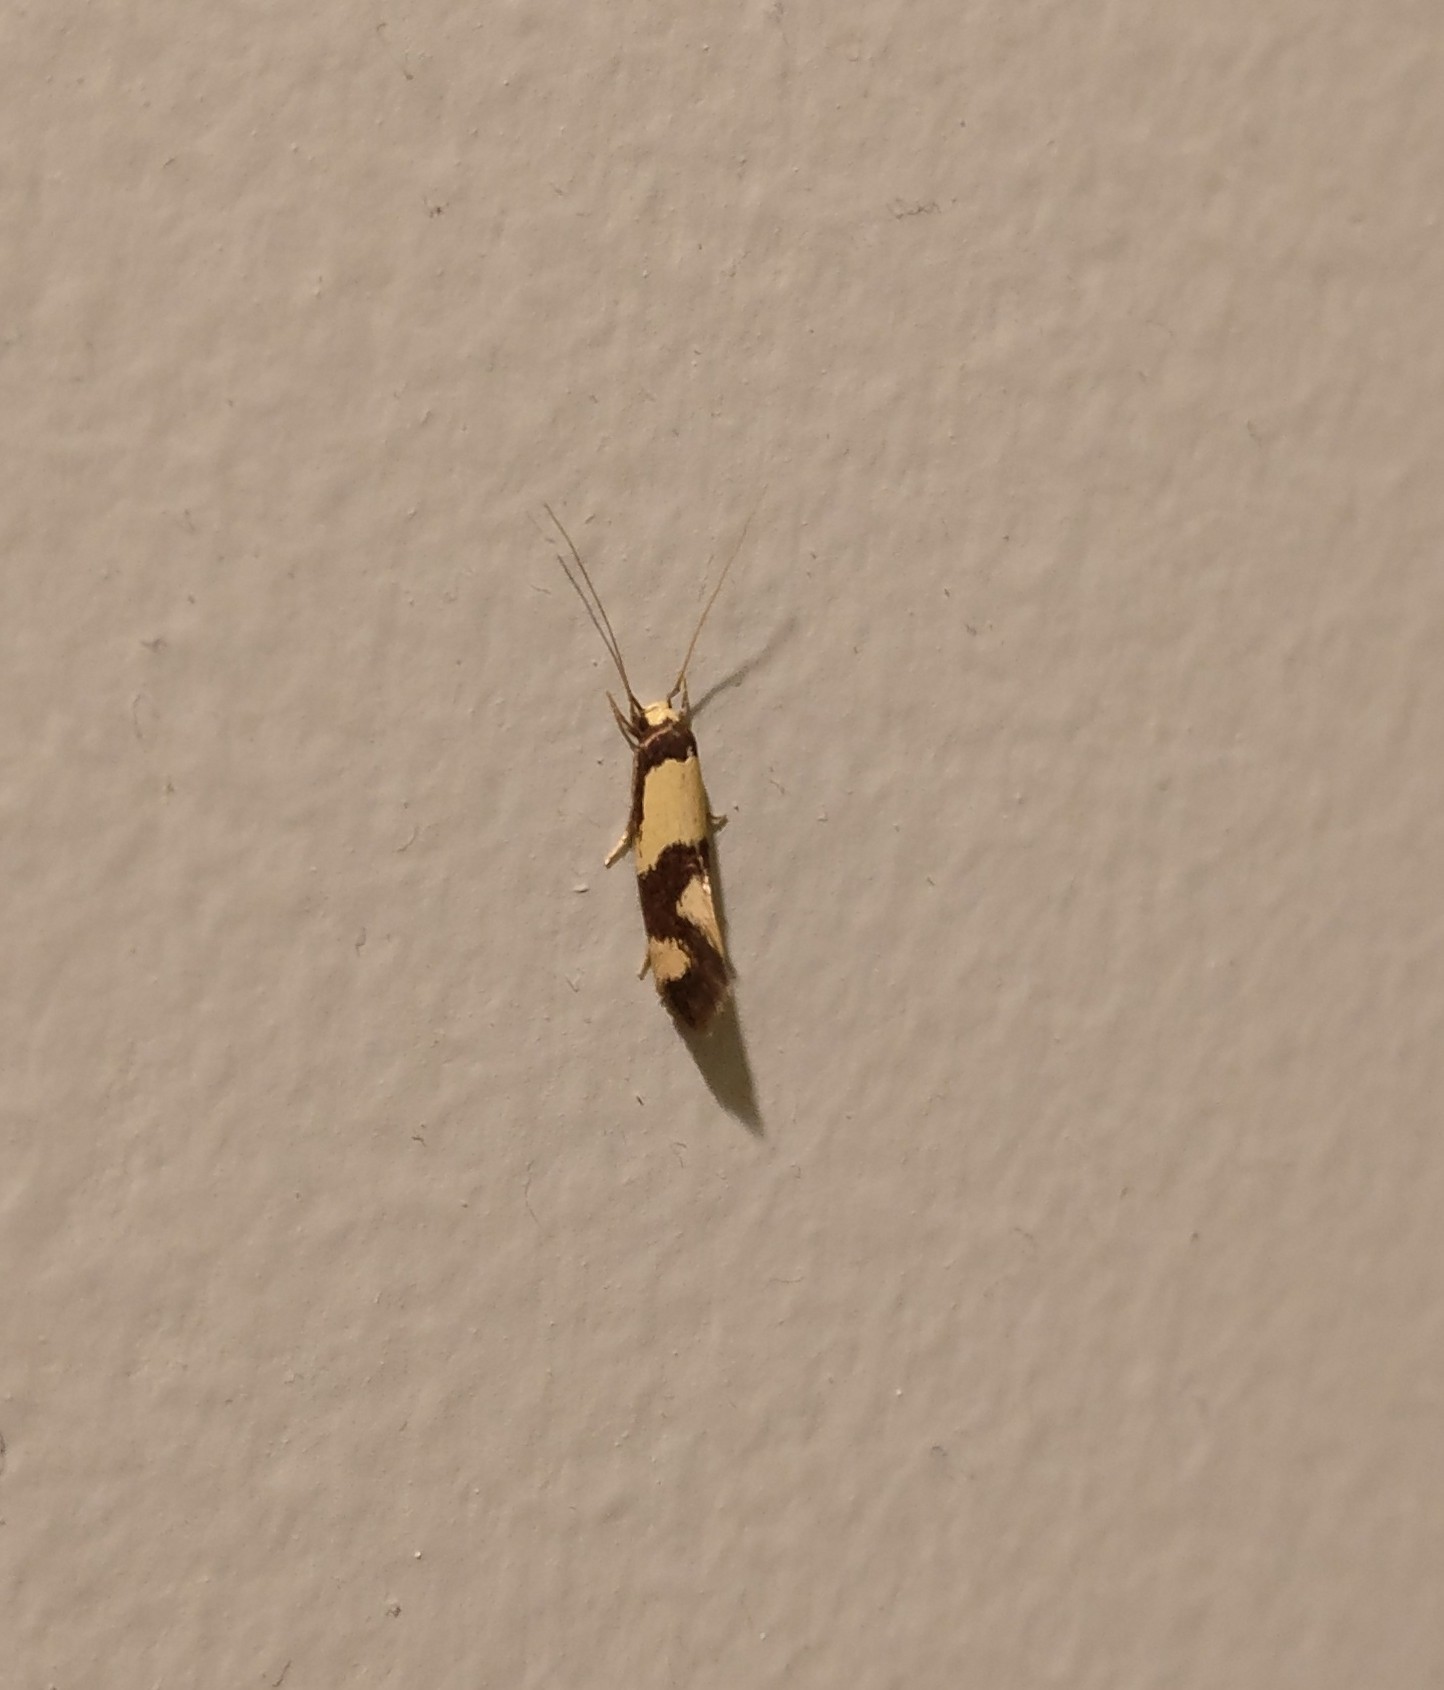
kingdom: Animalia
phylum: Arthropoda
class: Insecta
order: Lepidoptera
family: Tineidae
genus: Opogona
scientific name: Opogona comptella
